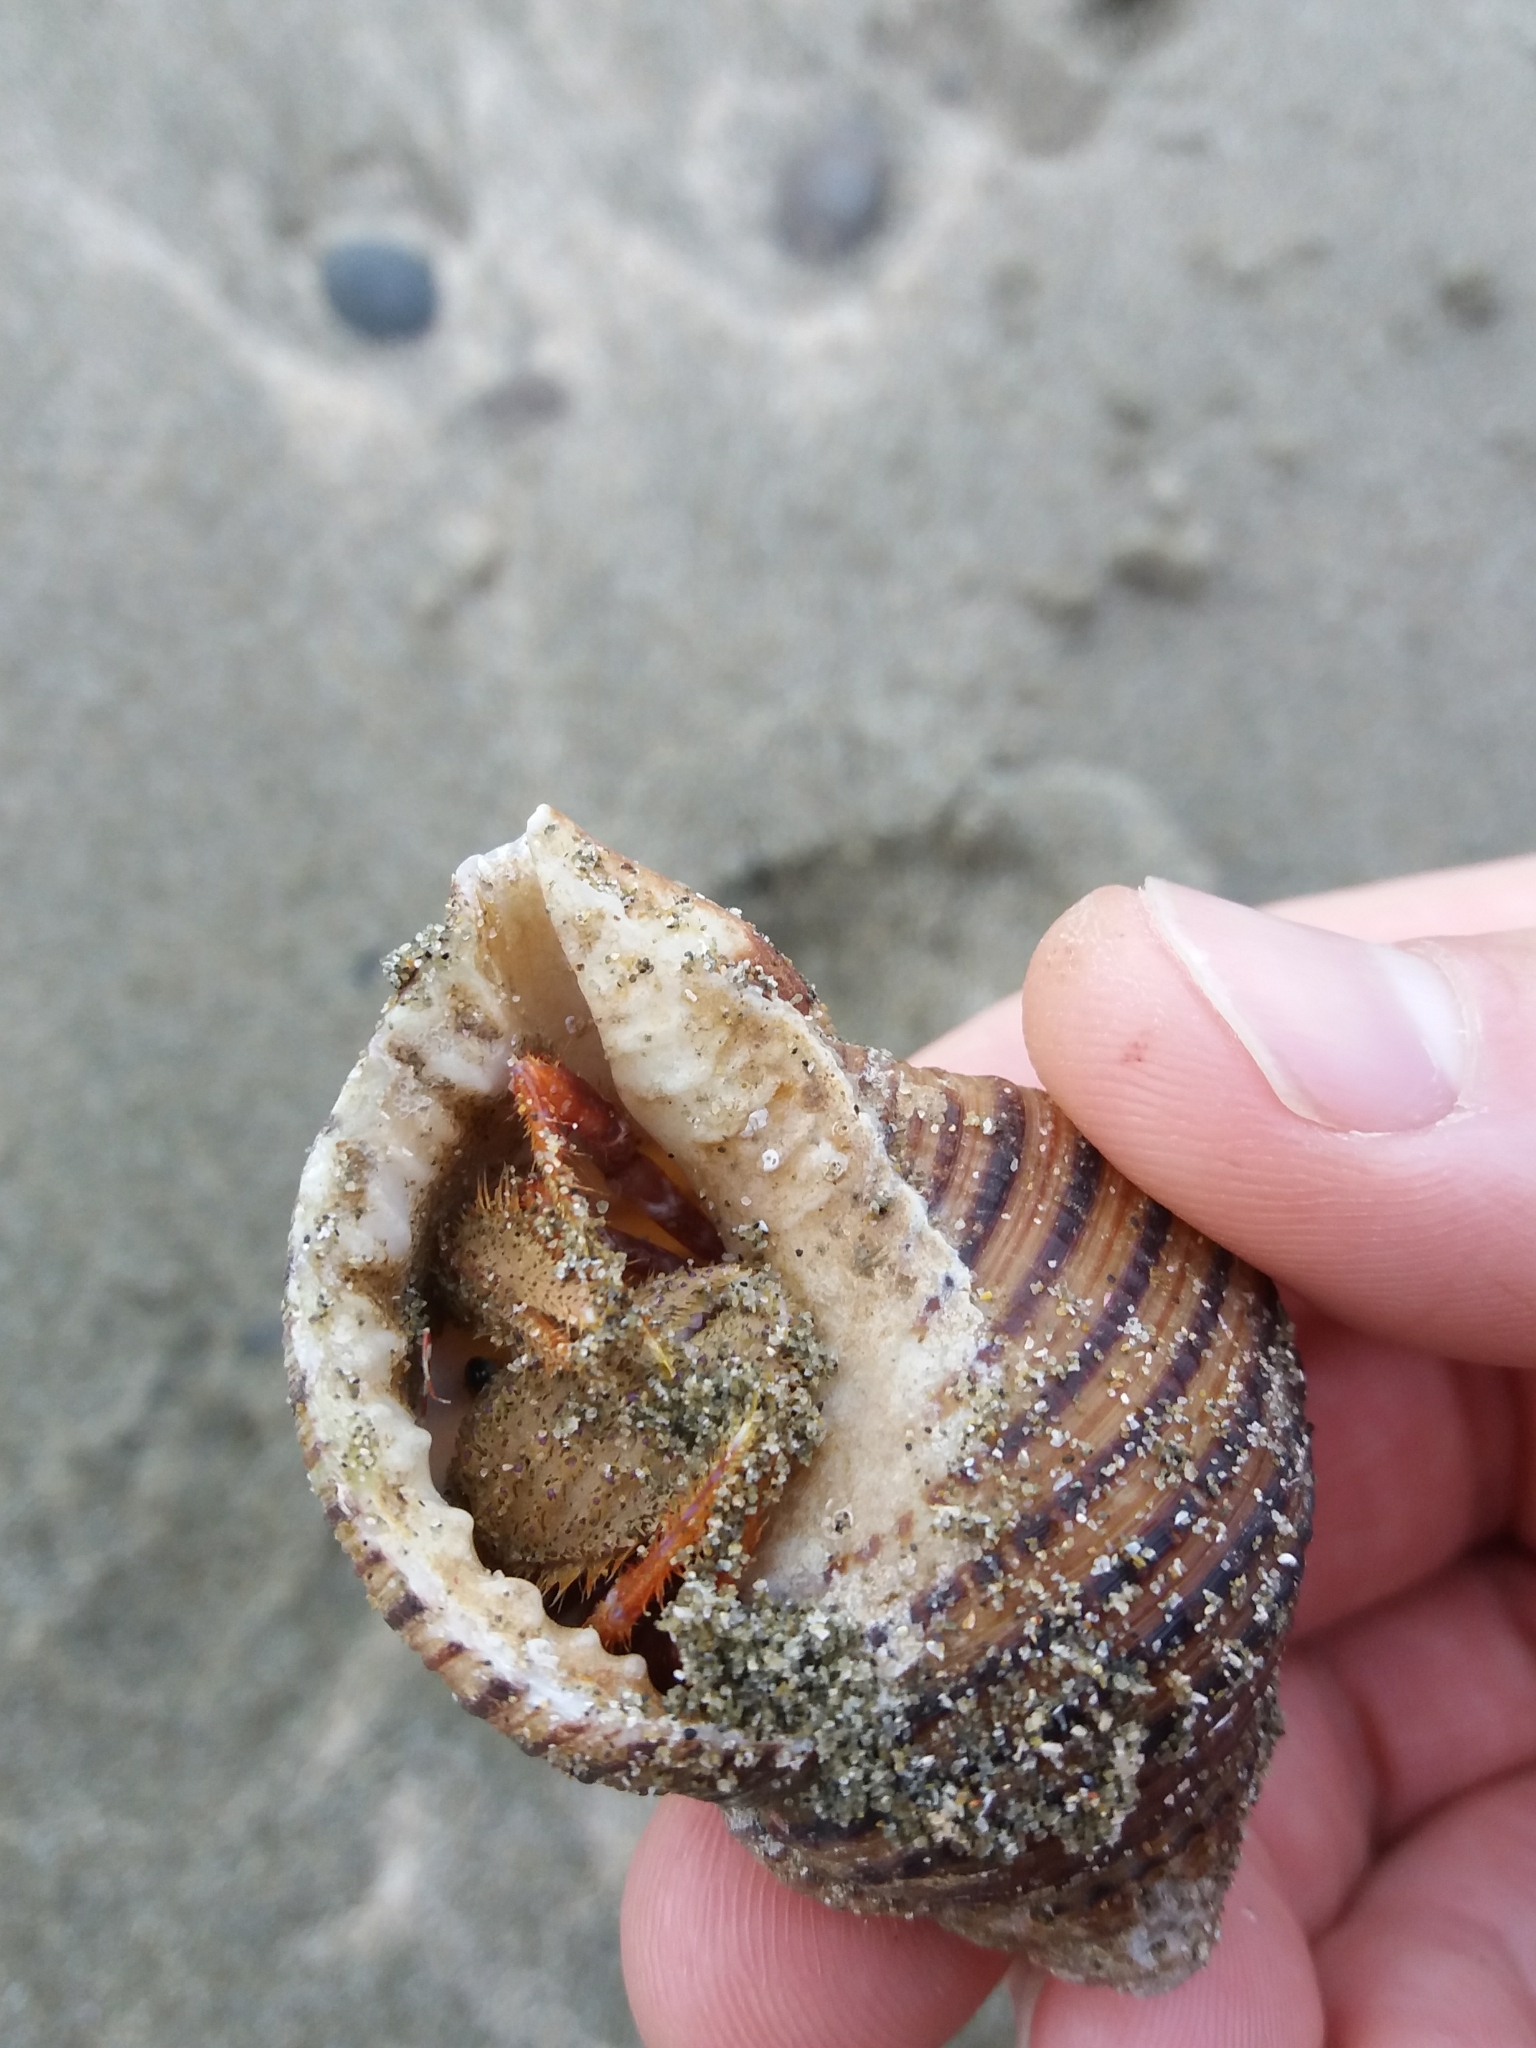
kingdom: Animalia
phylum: Mollusca
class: Gastropoda
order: Littorinimorpha
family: Cymatiidae
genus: Argobuccinum
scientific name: Argobuccinum pustulosum
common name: Pustular triton
